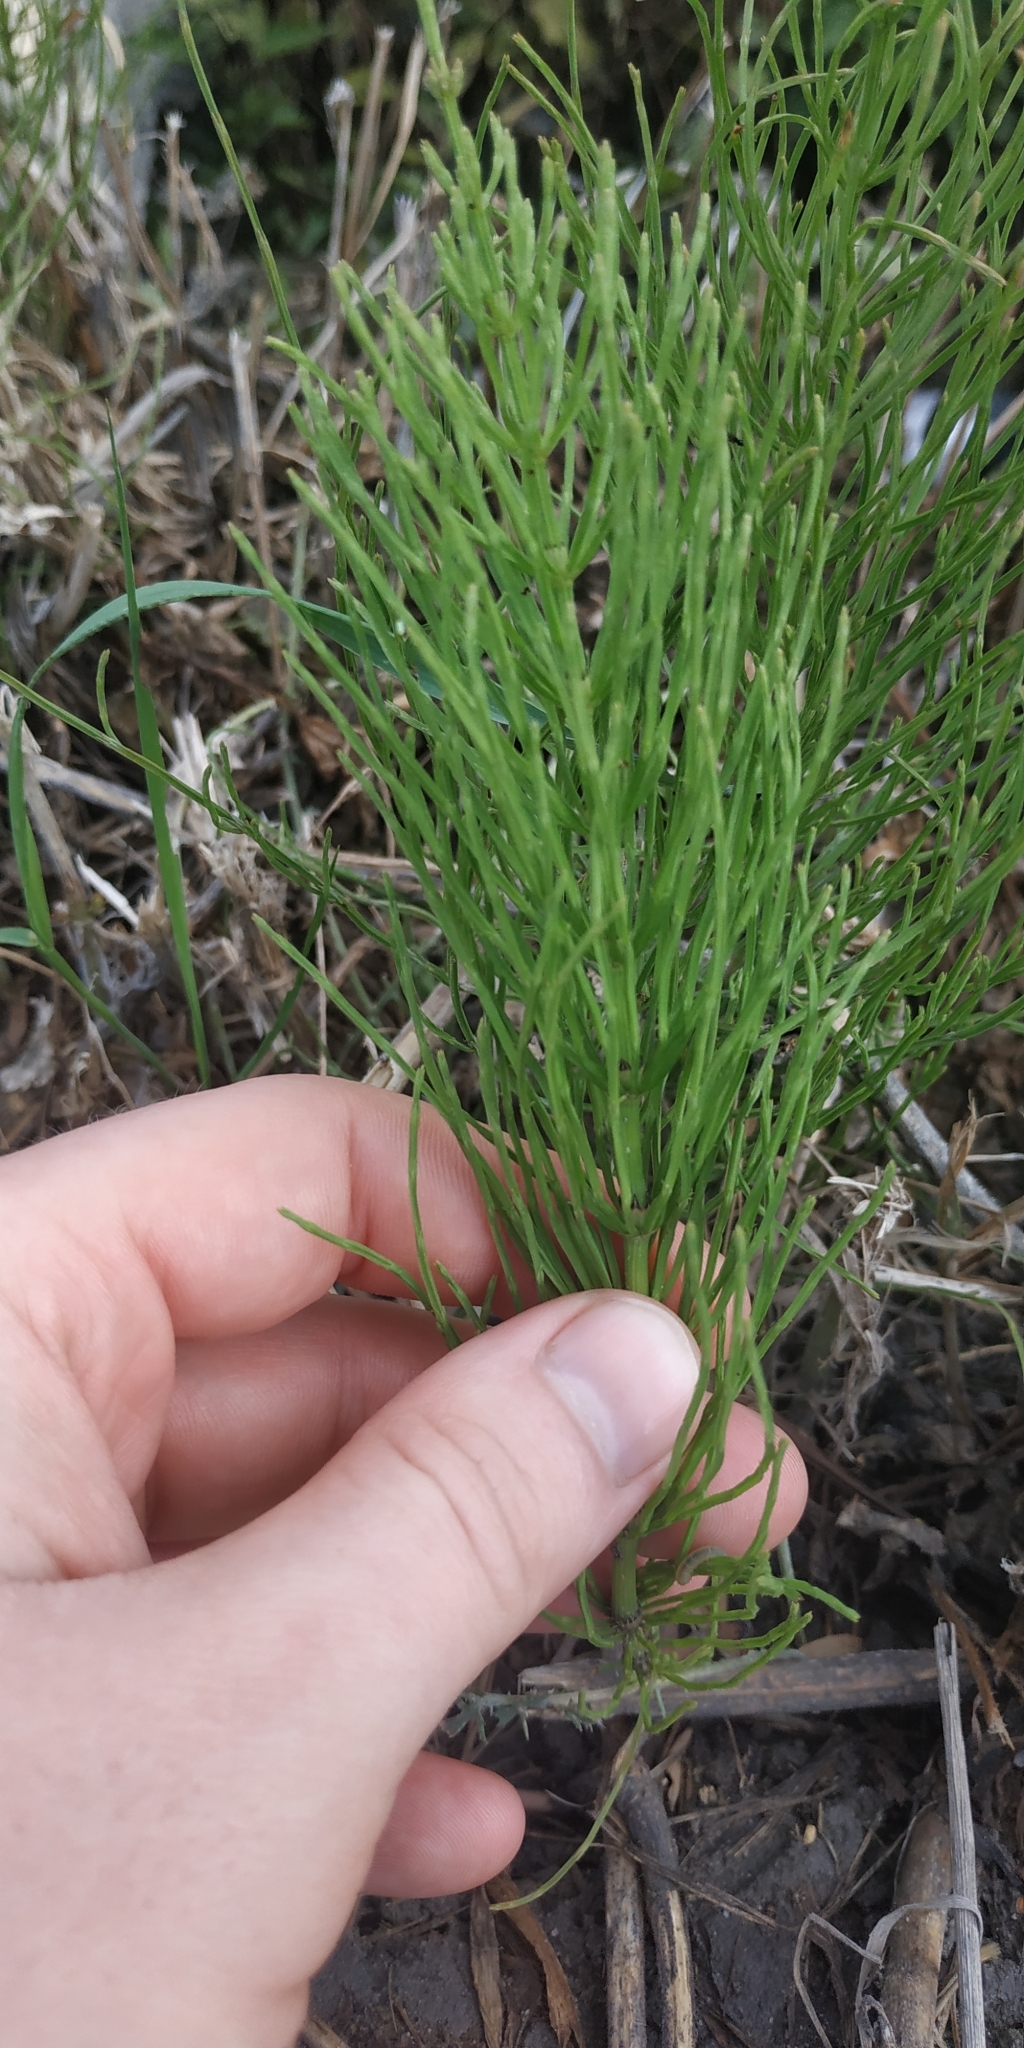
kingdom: Plantae
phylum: Tracheophyta
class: Polypodiopsida
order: Equisetales
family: Equisetaceae
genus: Equisetum
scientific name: Equisetum arvense
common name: Field horsetail
